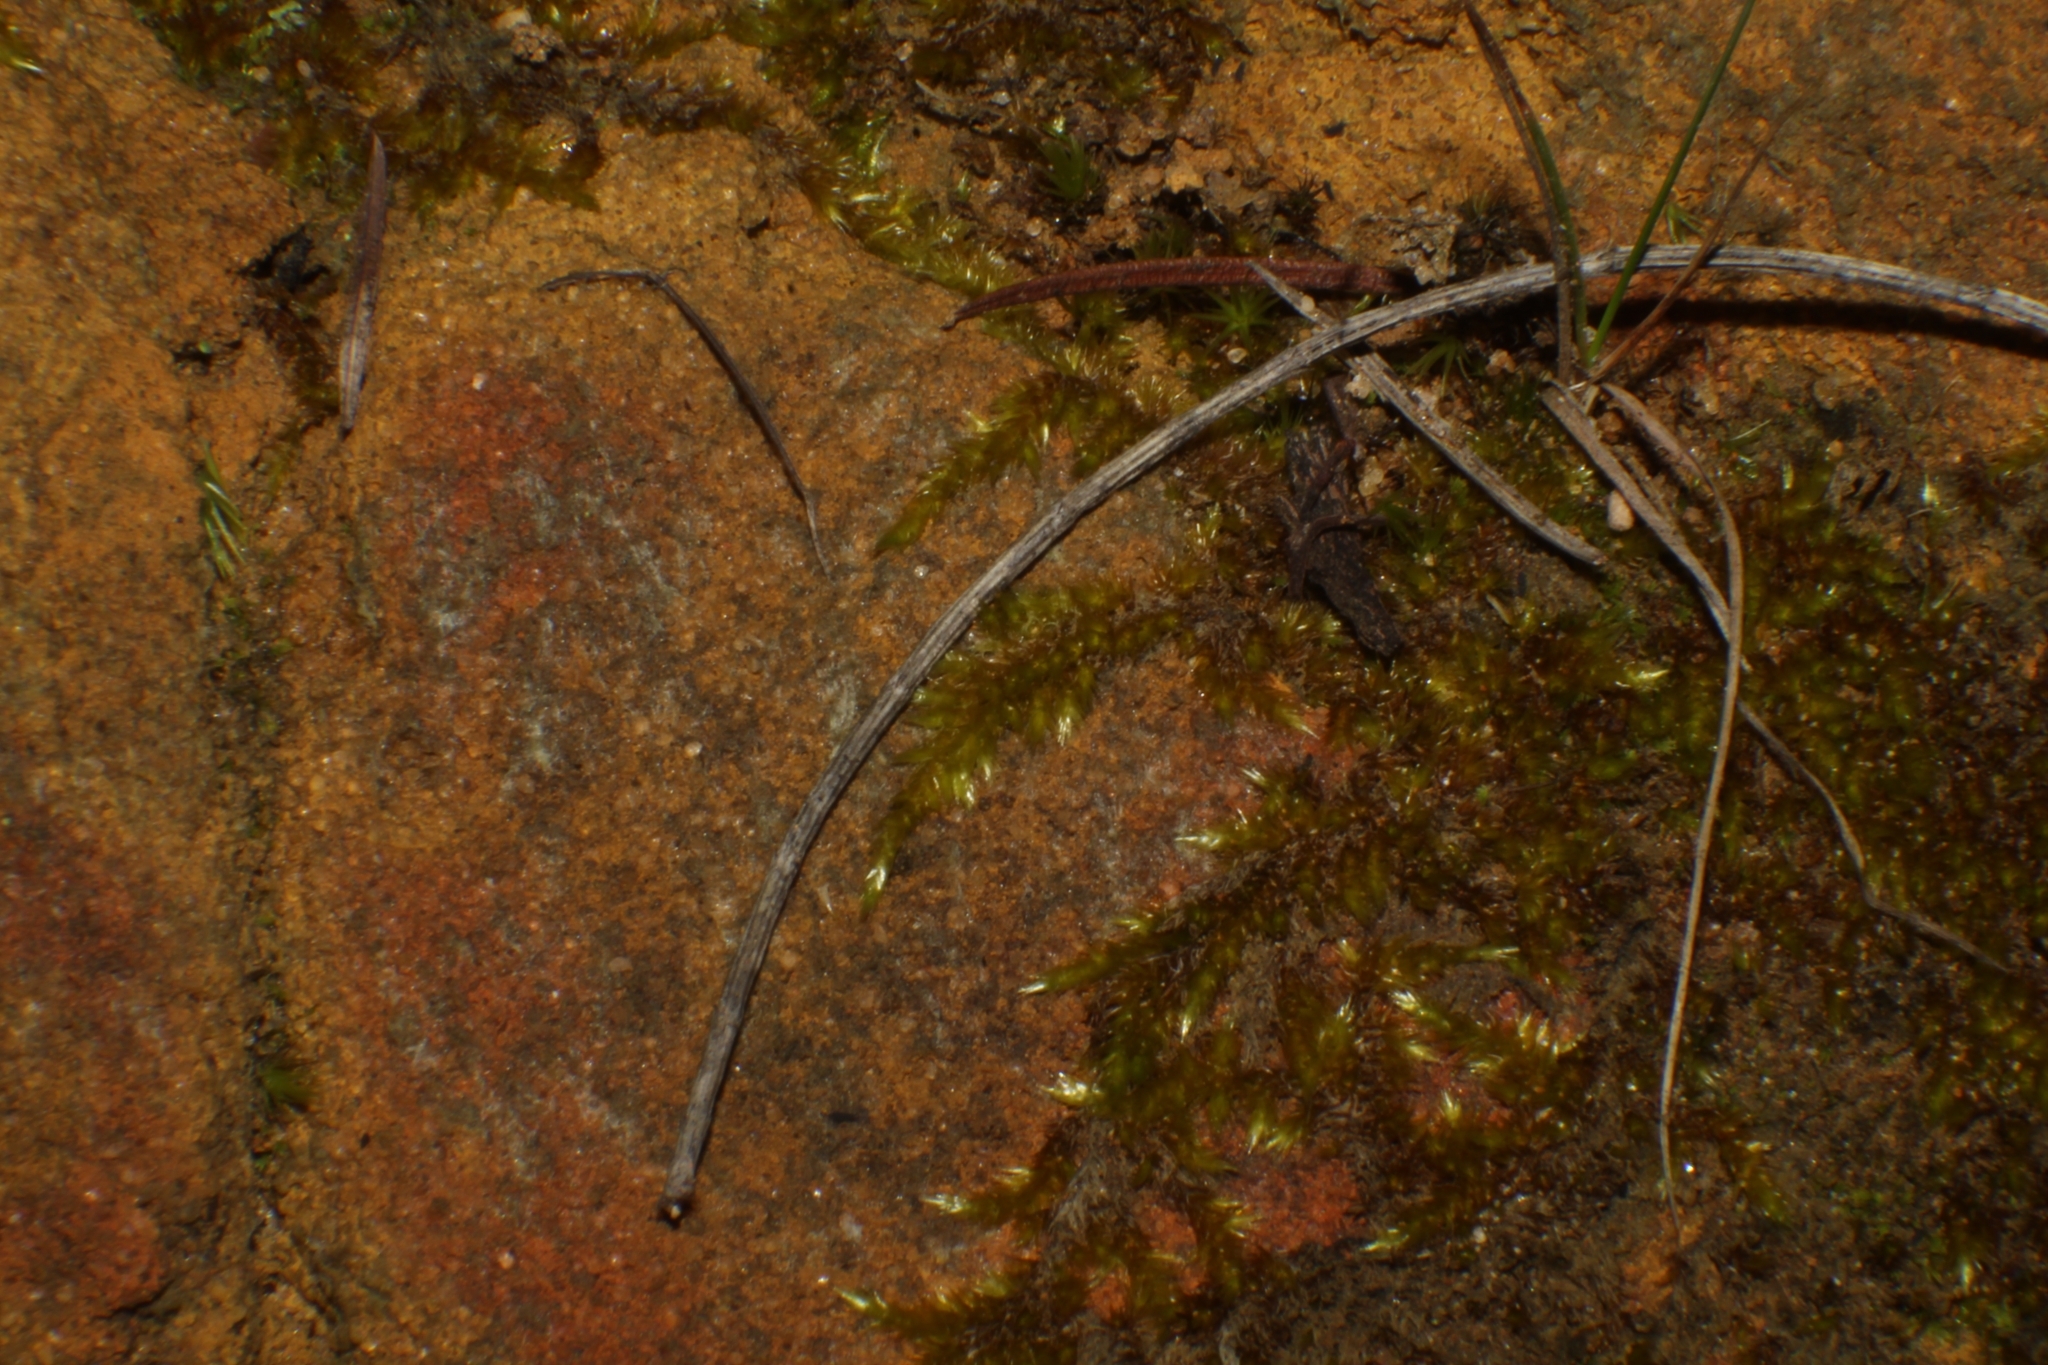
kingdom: Plantae
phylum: Bryophyta
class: Bryopsida
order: Hypnales
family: Sematophyllaceae
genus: Sematophyllum
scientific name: Sematophyllum homomallum
